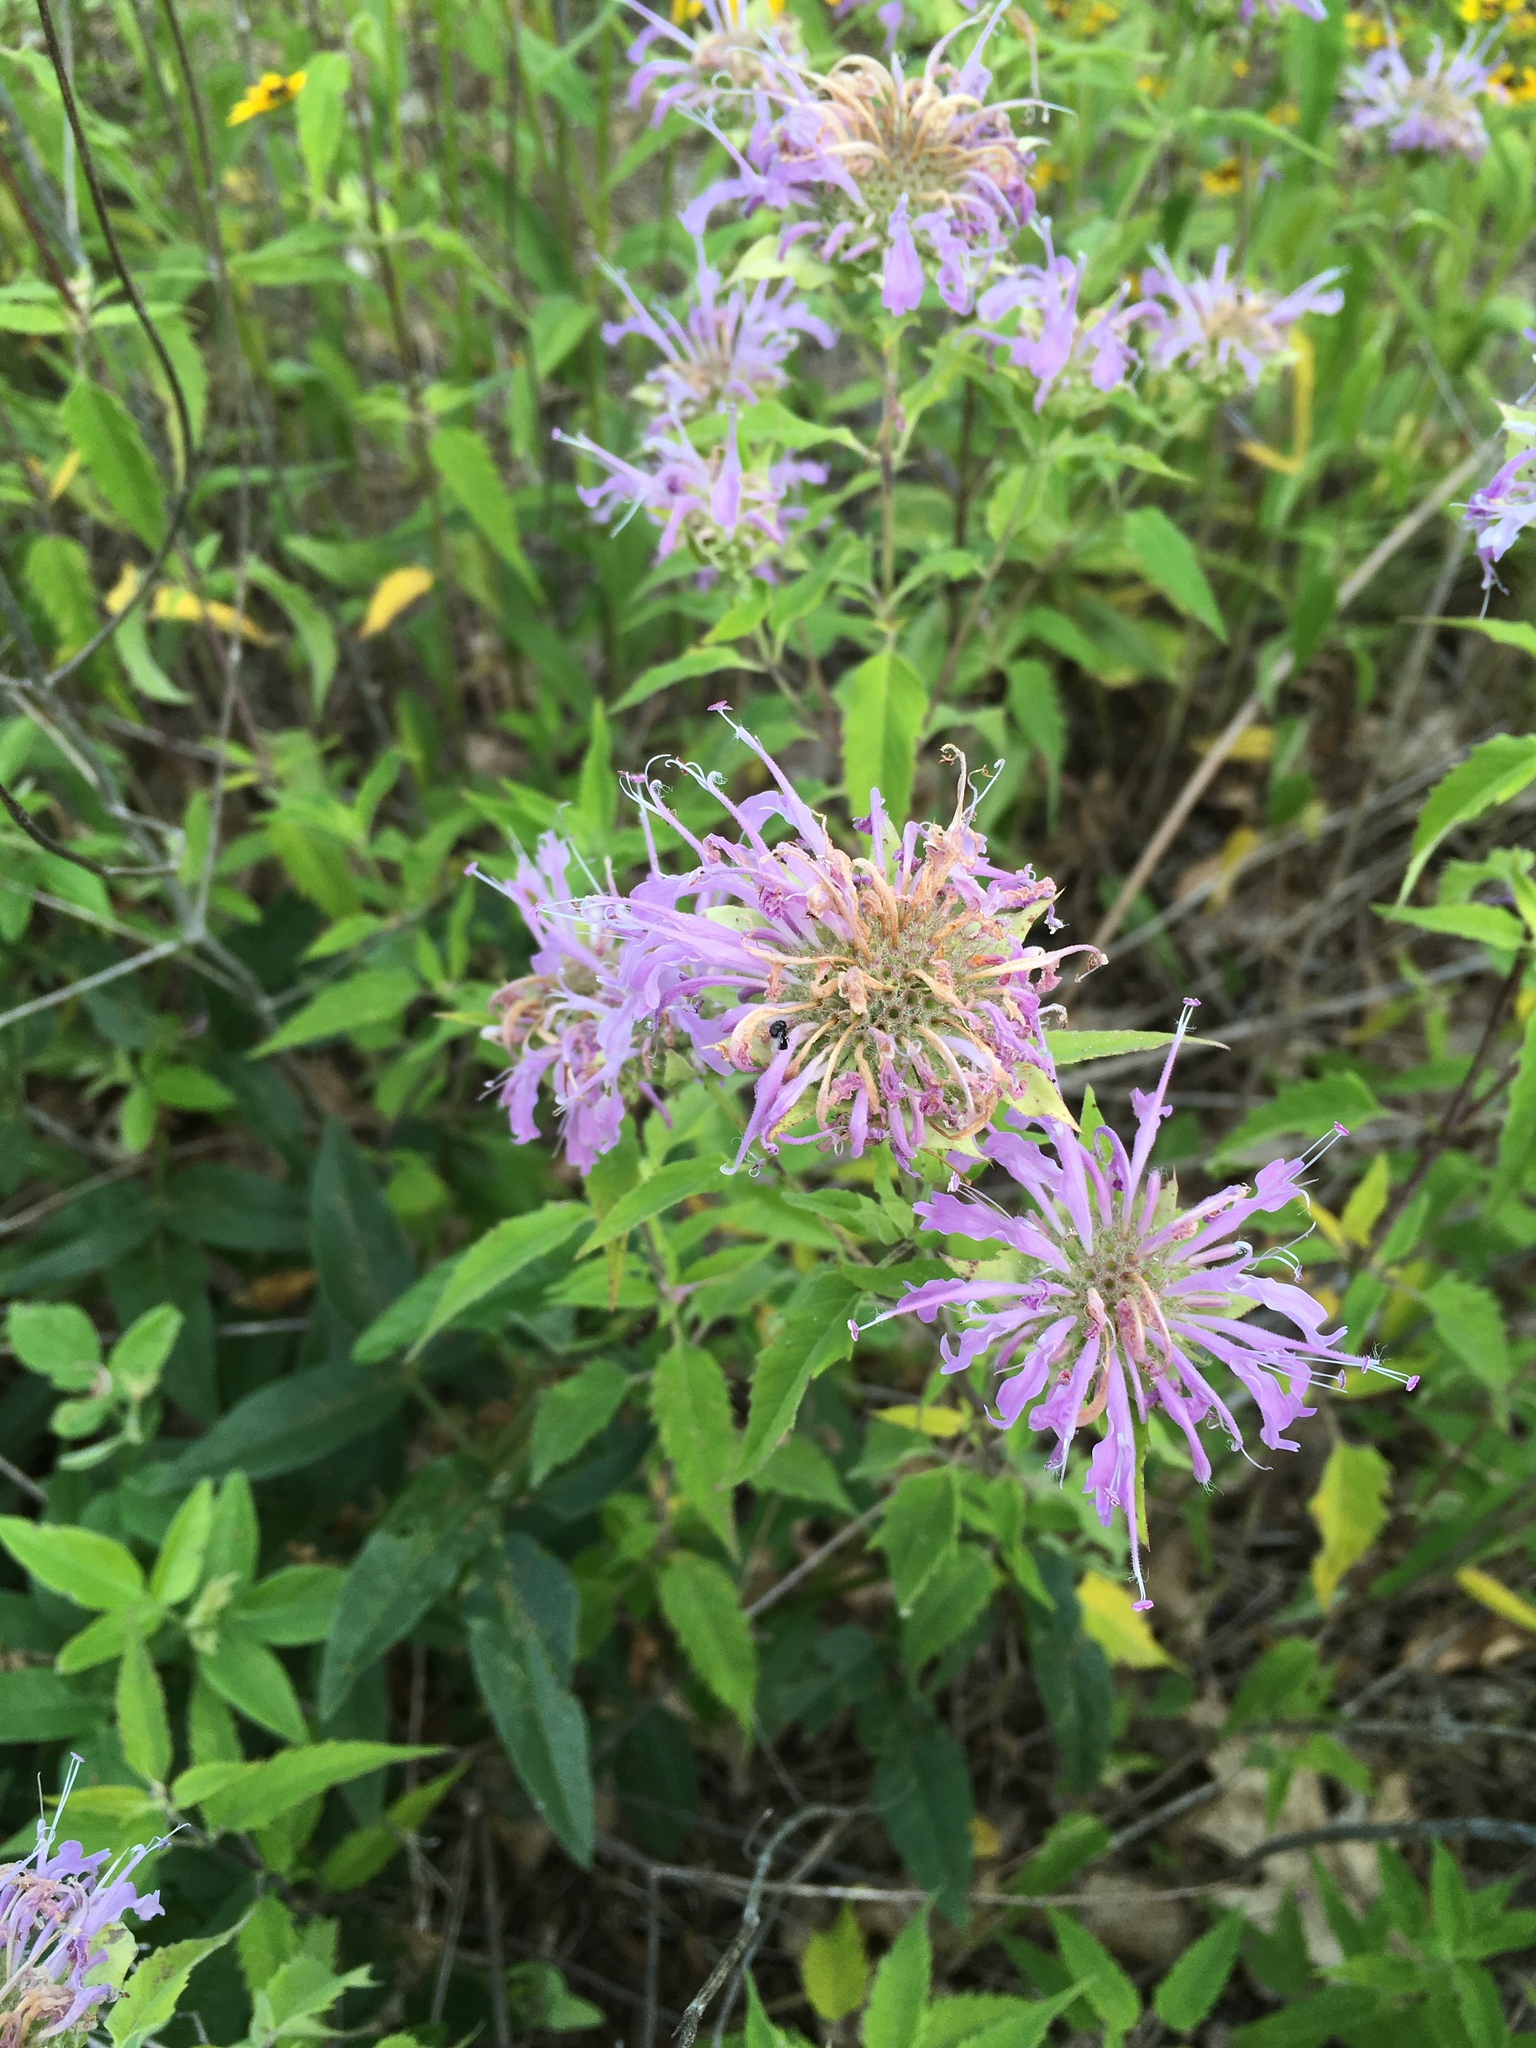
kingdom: Plantae
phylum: Tracheophyta
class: Magnoliopsida
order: Lamiales
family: Lamiaceae
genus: Monarda
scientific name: Monarda fistulosa
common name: Purple beebalm
